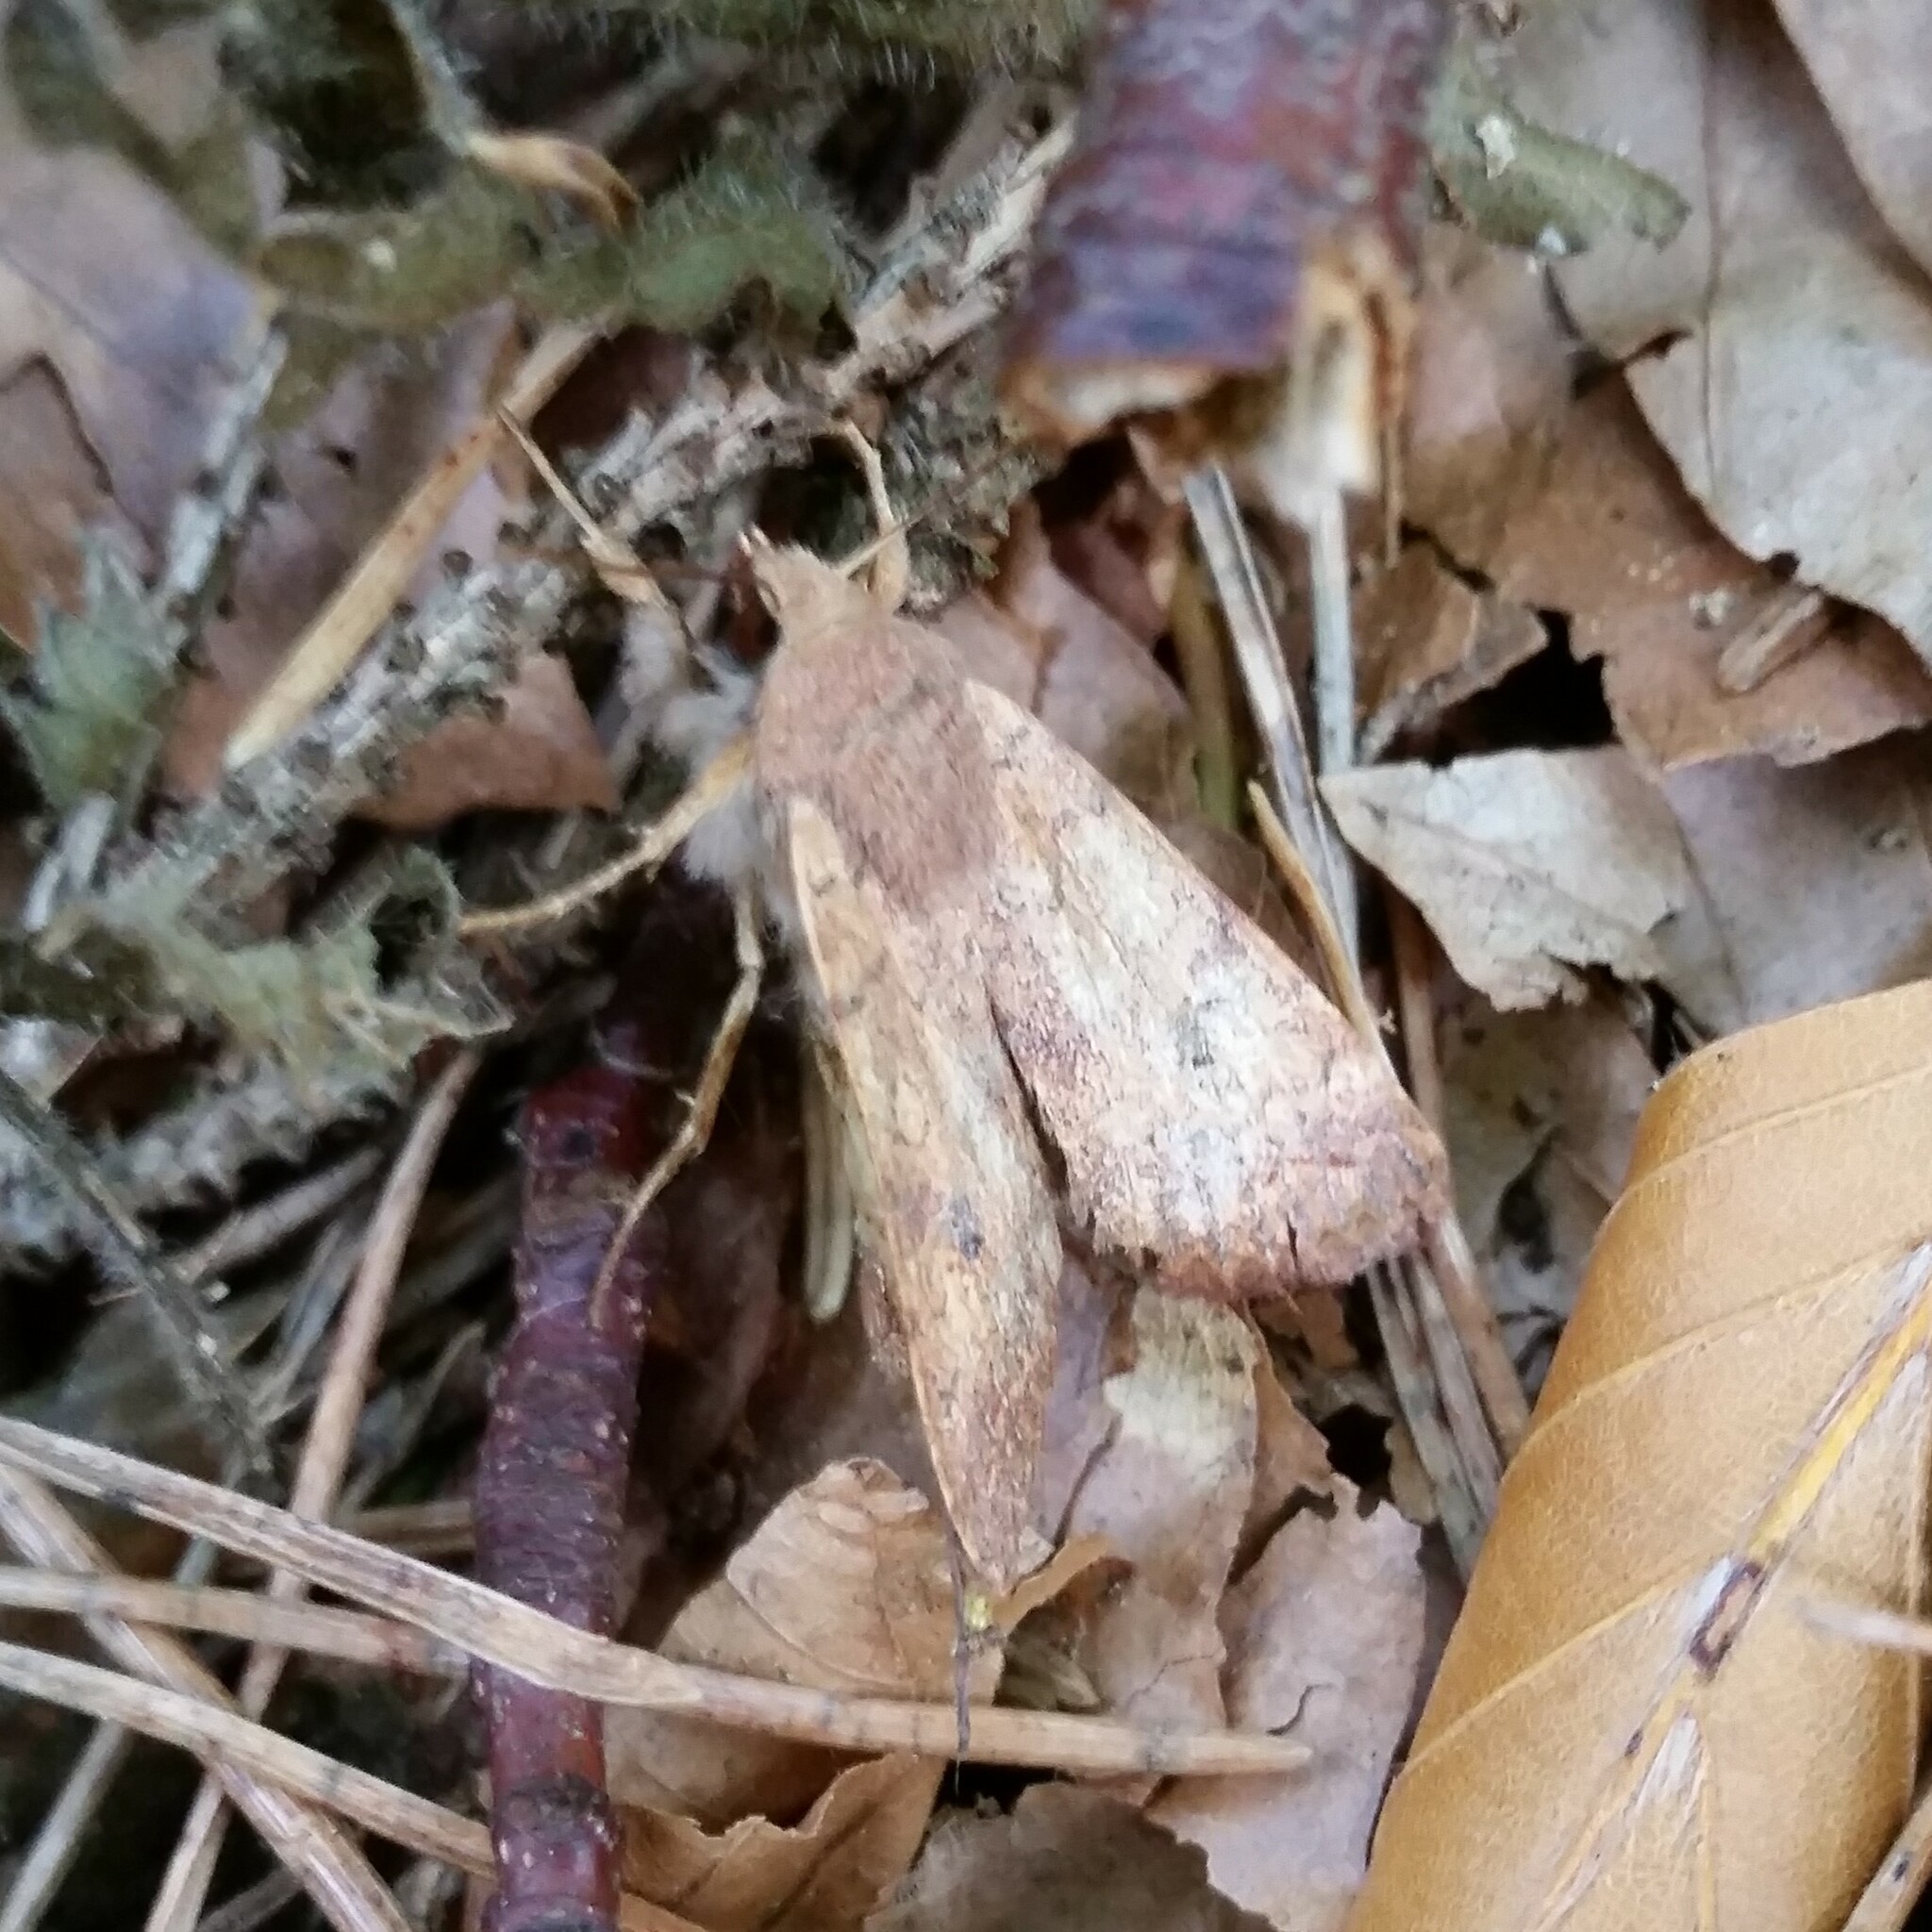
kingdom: Animalia
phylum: Arthropoda
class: Insecta
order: Lepidoptera
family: Noctuidae
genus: Sunira
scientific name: Sunira circellaris
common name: Brick
